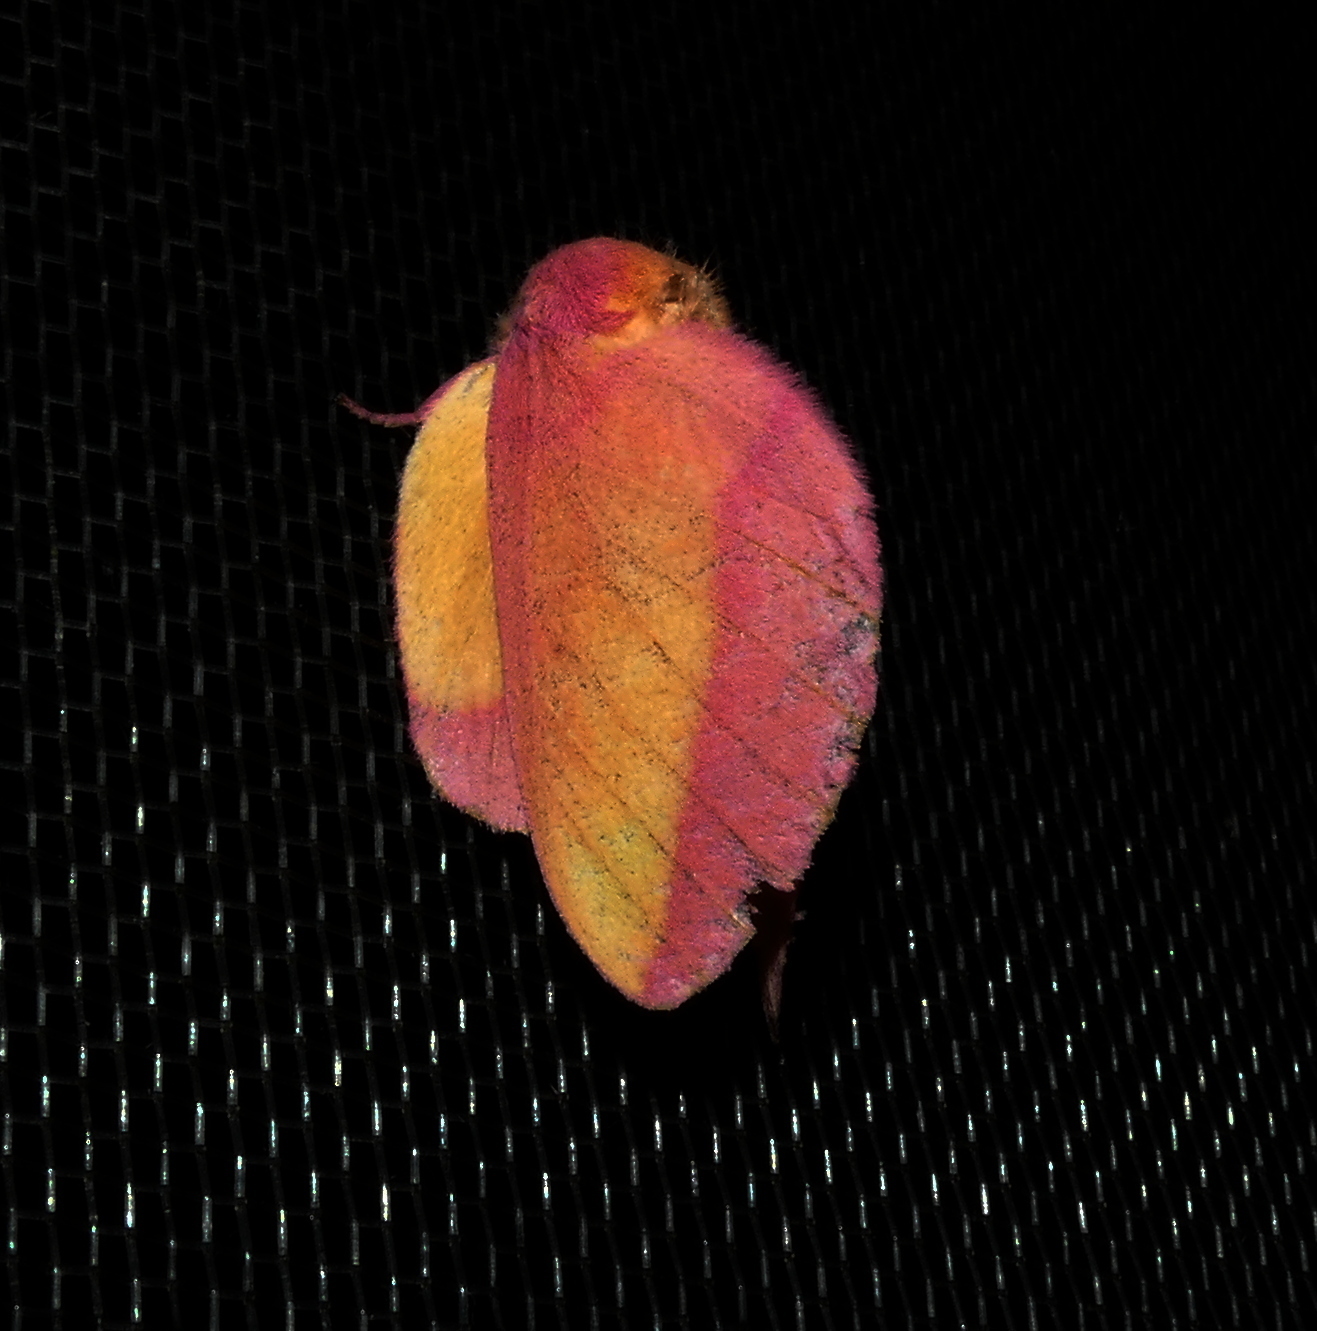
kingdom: Animalia
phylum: Arthropoda
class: Insecta
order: Lepidoptera
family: Saturniidae
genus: Psilopygida
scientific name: Psilopygida walkeri
